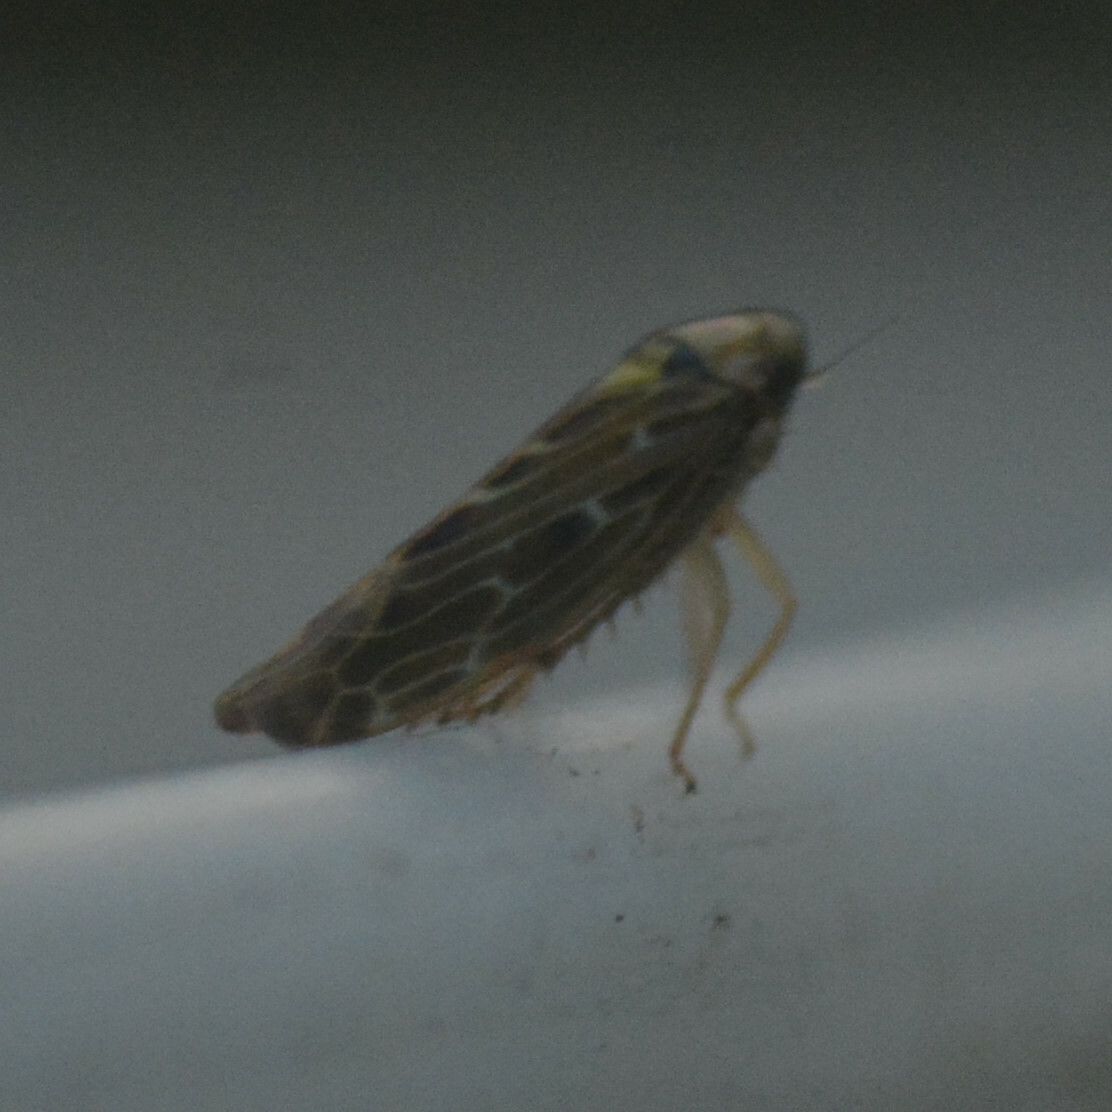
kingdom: Animalia
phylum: Arthropoda
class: Insecta
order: Hemiptera
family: Cicadellidae
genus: Lamprotettix
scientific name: Lamprotettix nitidulus
